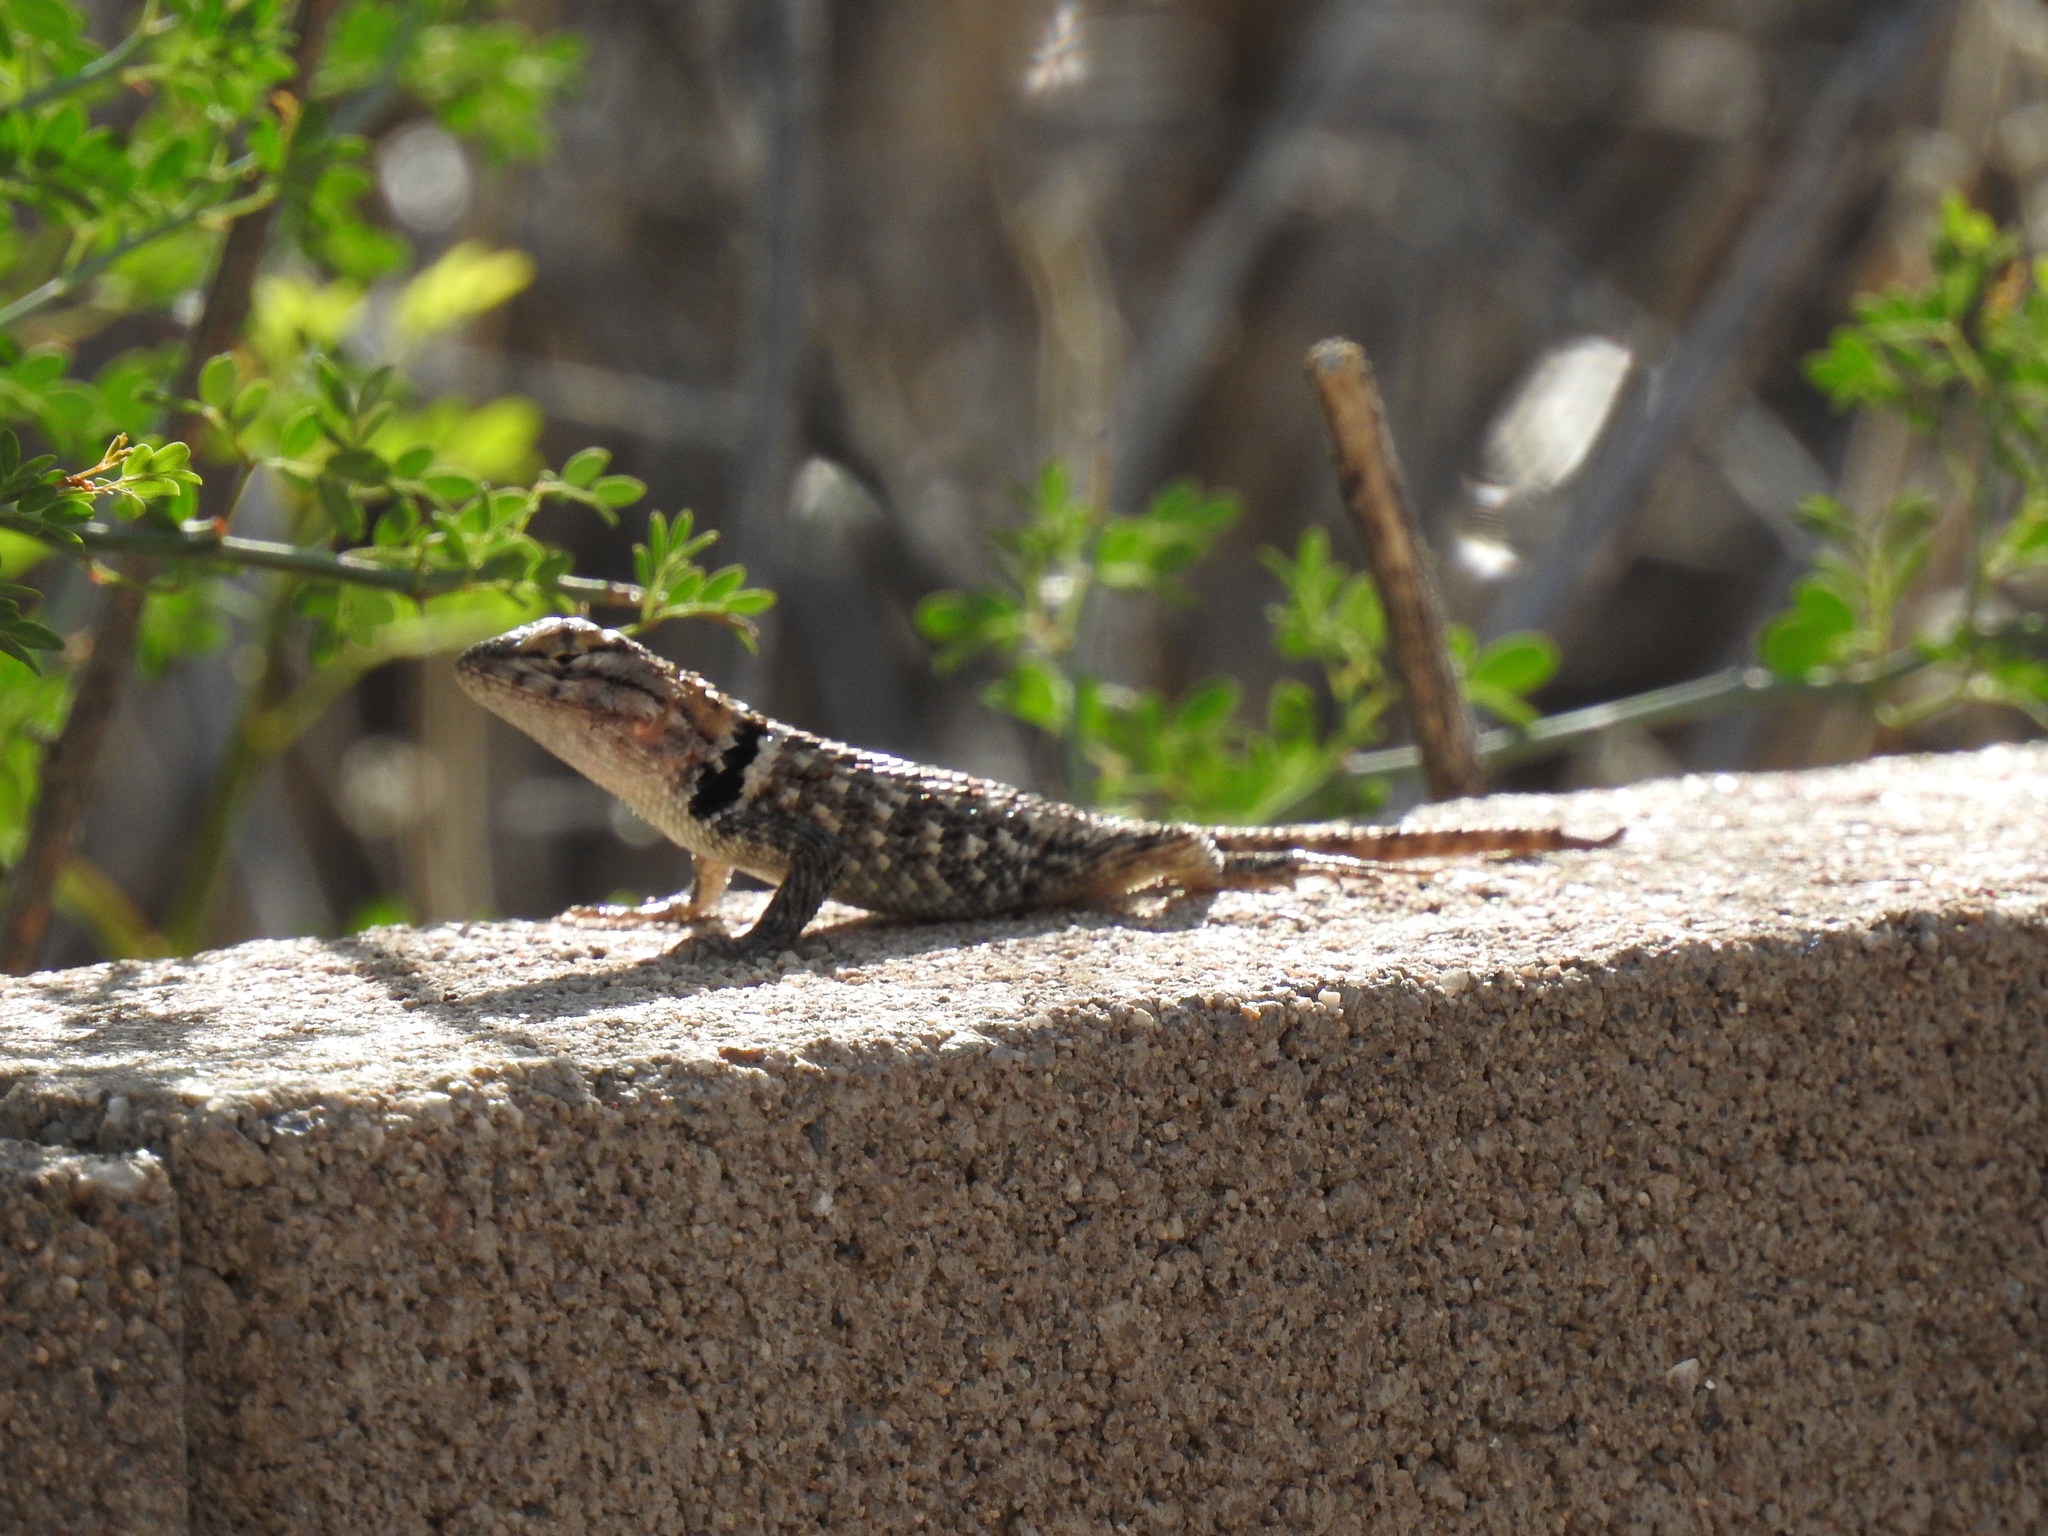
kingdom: Animalia
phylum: Chordata
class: Squamata
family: Phrynosomatidae
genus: Sceloporus
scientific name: Sceloporus magister
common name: Desert spiny lizard
